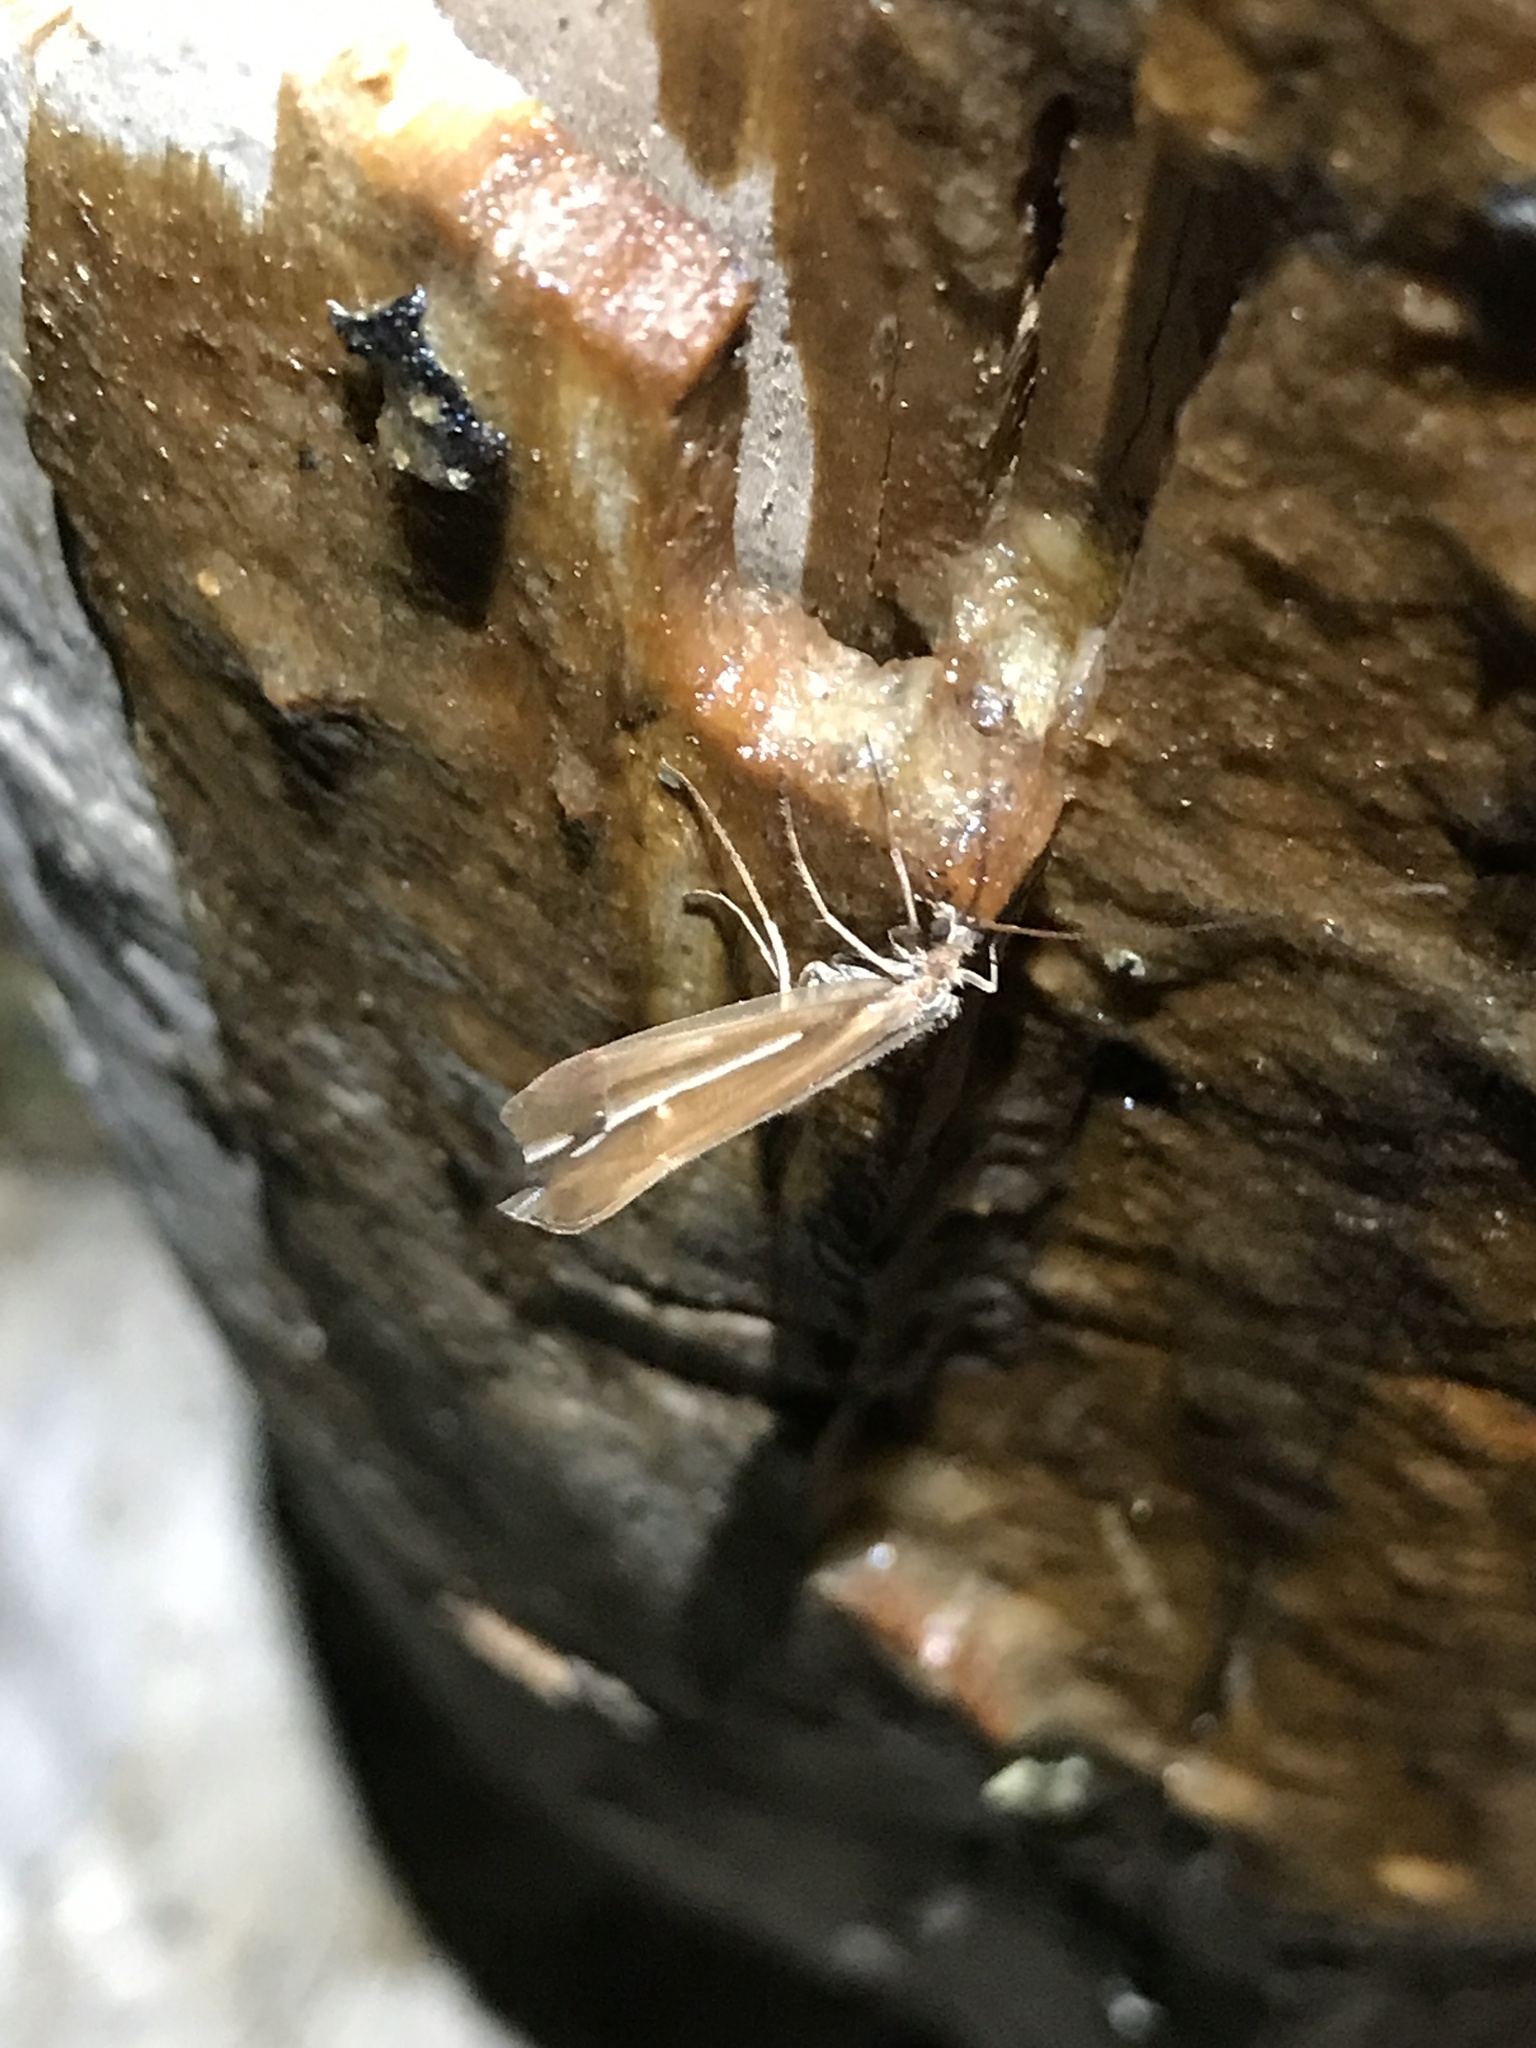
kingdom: Animalia
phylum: Arthropoda
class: Insecta
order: Trichoptera
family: Limnephilidae
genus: Psychoglypha
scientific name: Psychoglypha subborealis
